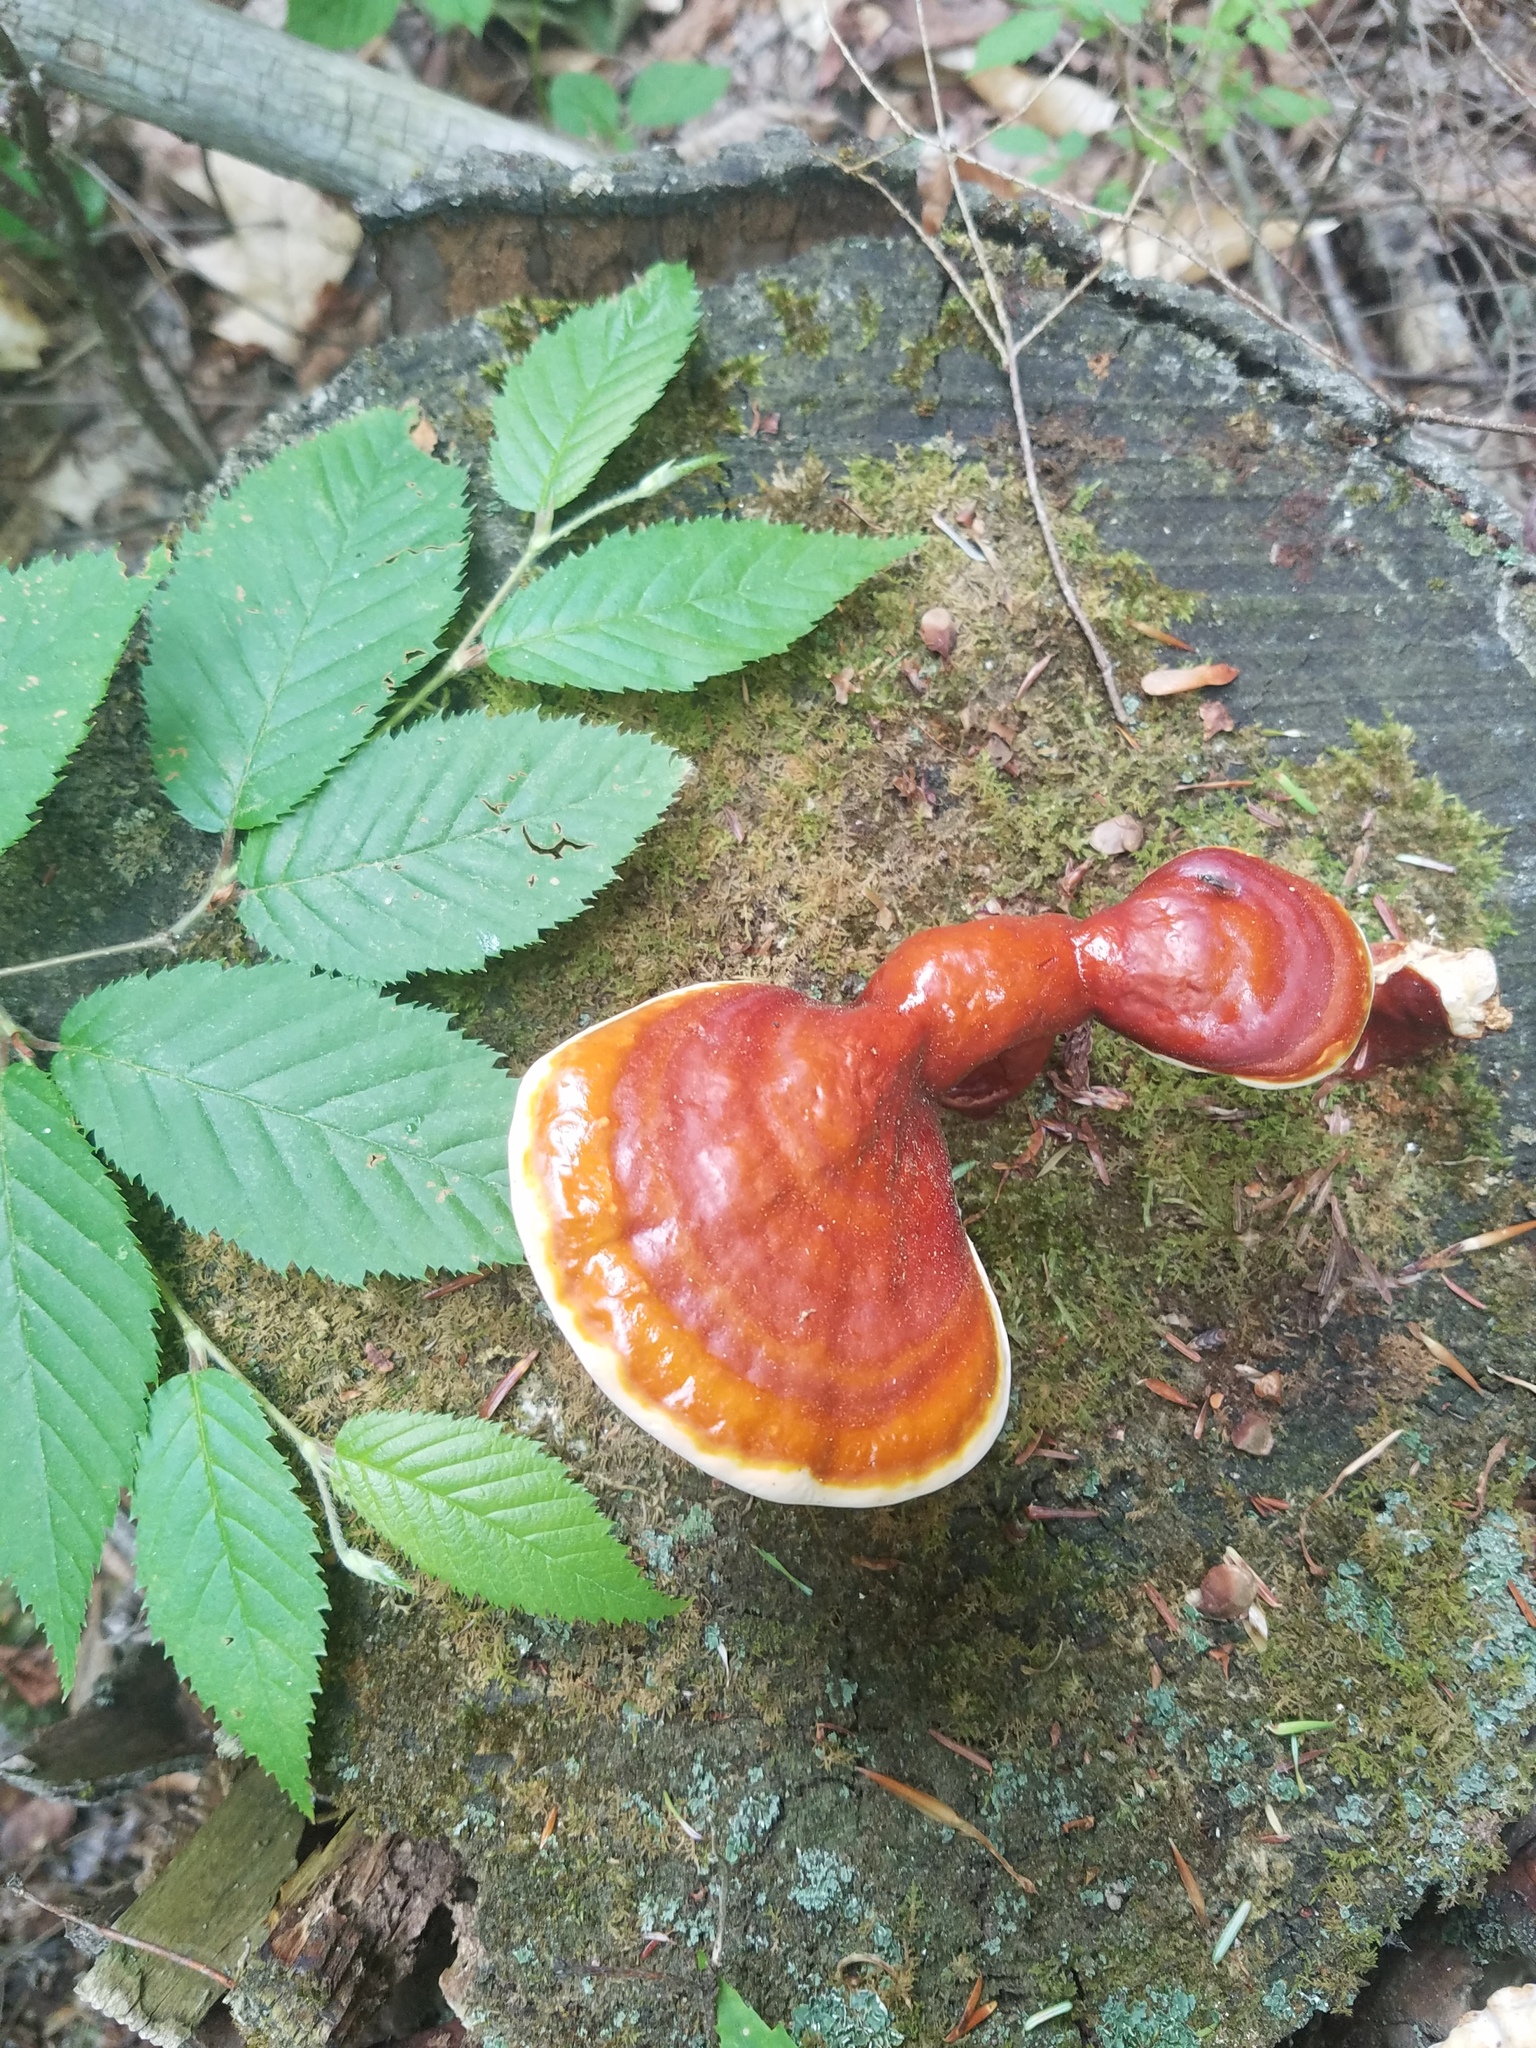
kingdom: Fungi
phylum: Basidiomycota
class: Agaricomycetes
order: Polyporales
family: Polyporaceae
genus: Ganoderma
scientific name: Ganoderma tsugae
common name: Hemlock varnish shelf
